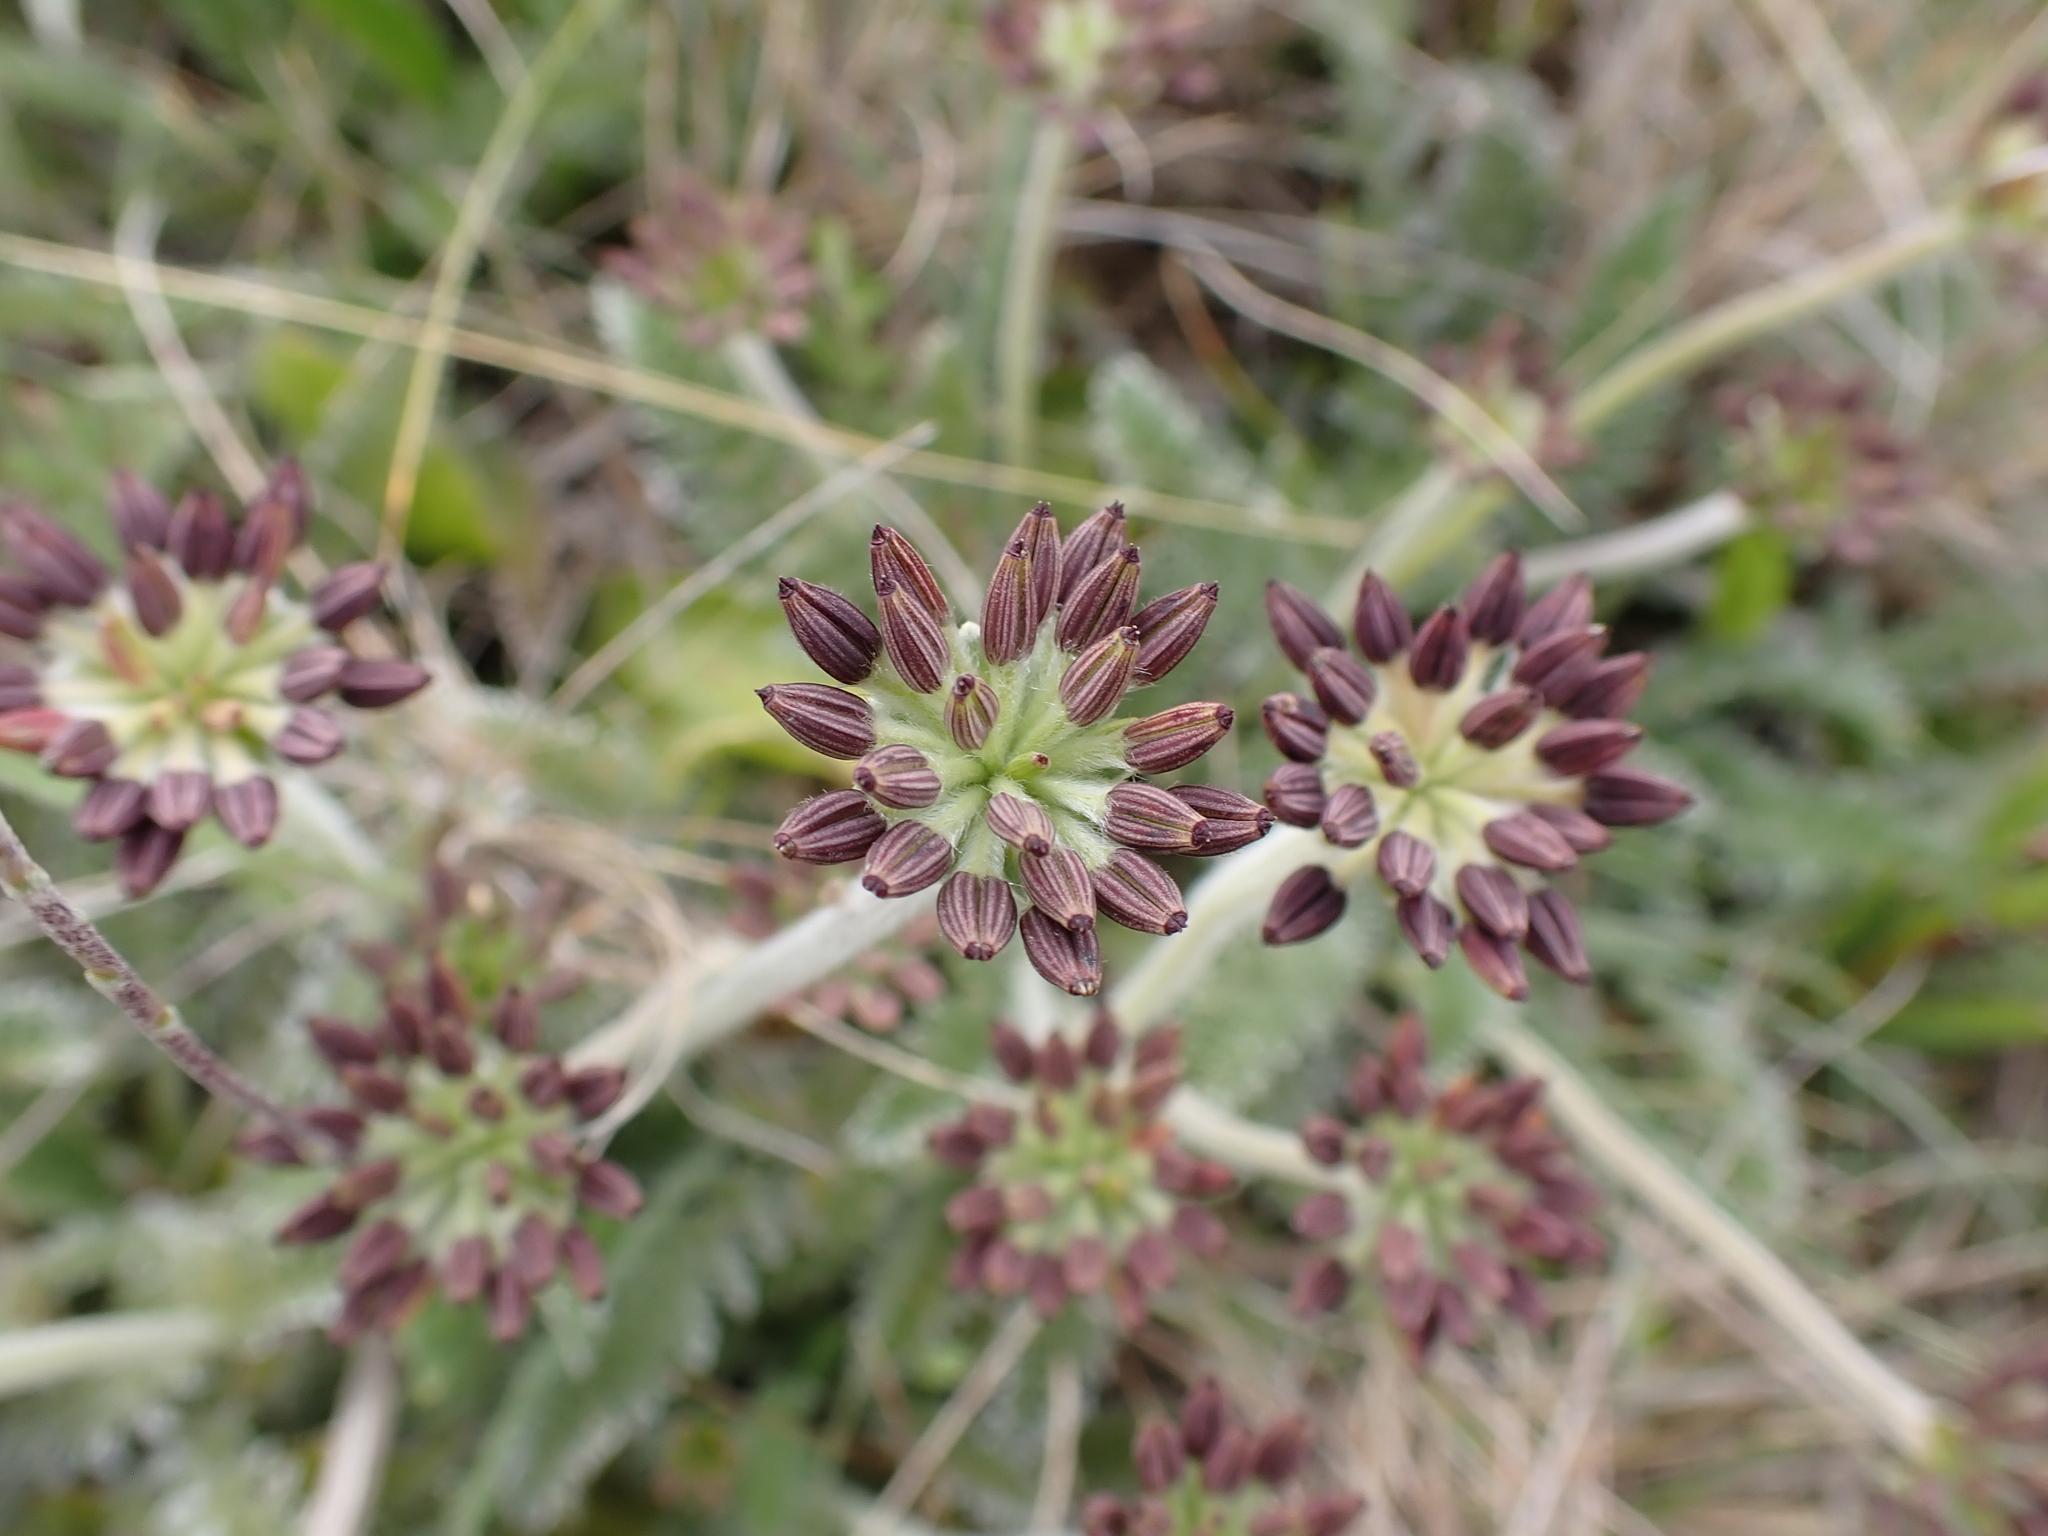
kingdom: Plantae
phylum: Tracheophyta
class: Magnoliopsida
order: Apiales
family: Apiaceae
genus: Chaerophyllum
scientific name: Chaerophyllum argenteum
